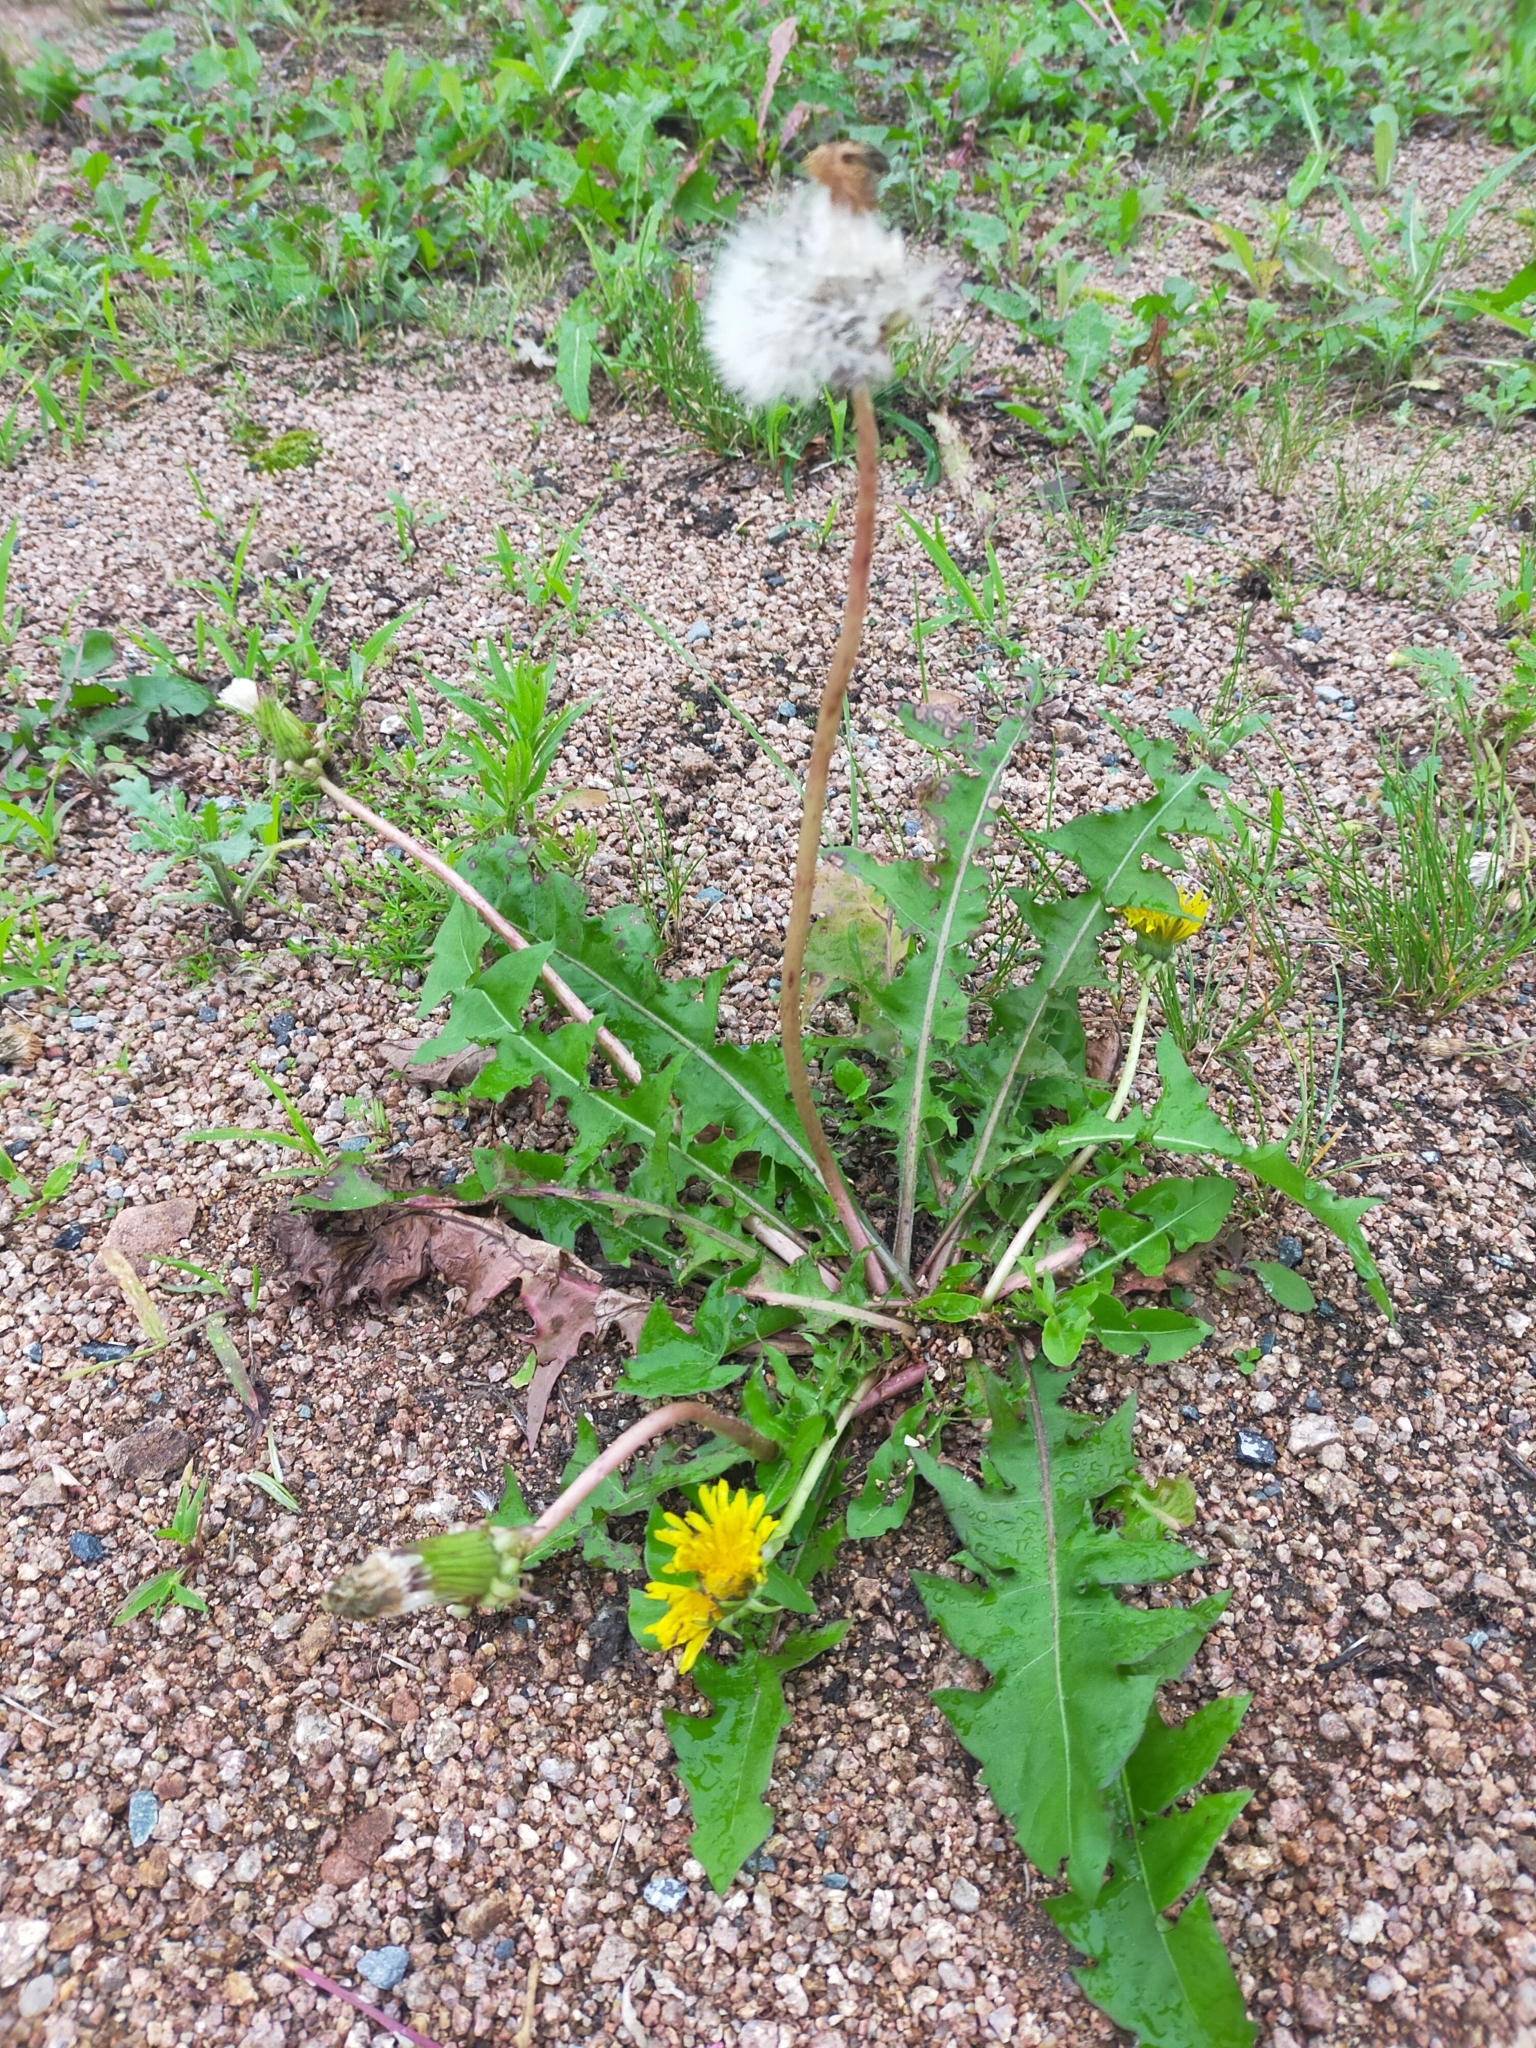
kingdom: Plantae
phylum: Tracheophyta
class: Magnoliopsida
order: Asterales
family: Asteraceae
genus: Taraxacum
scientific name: Taraxacum officinale
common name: Common dandelion
